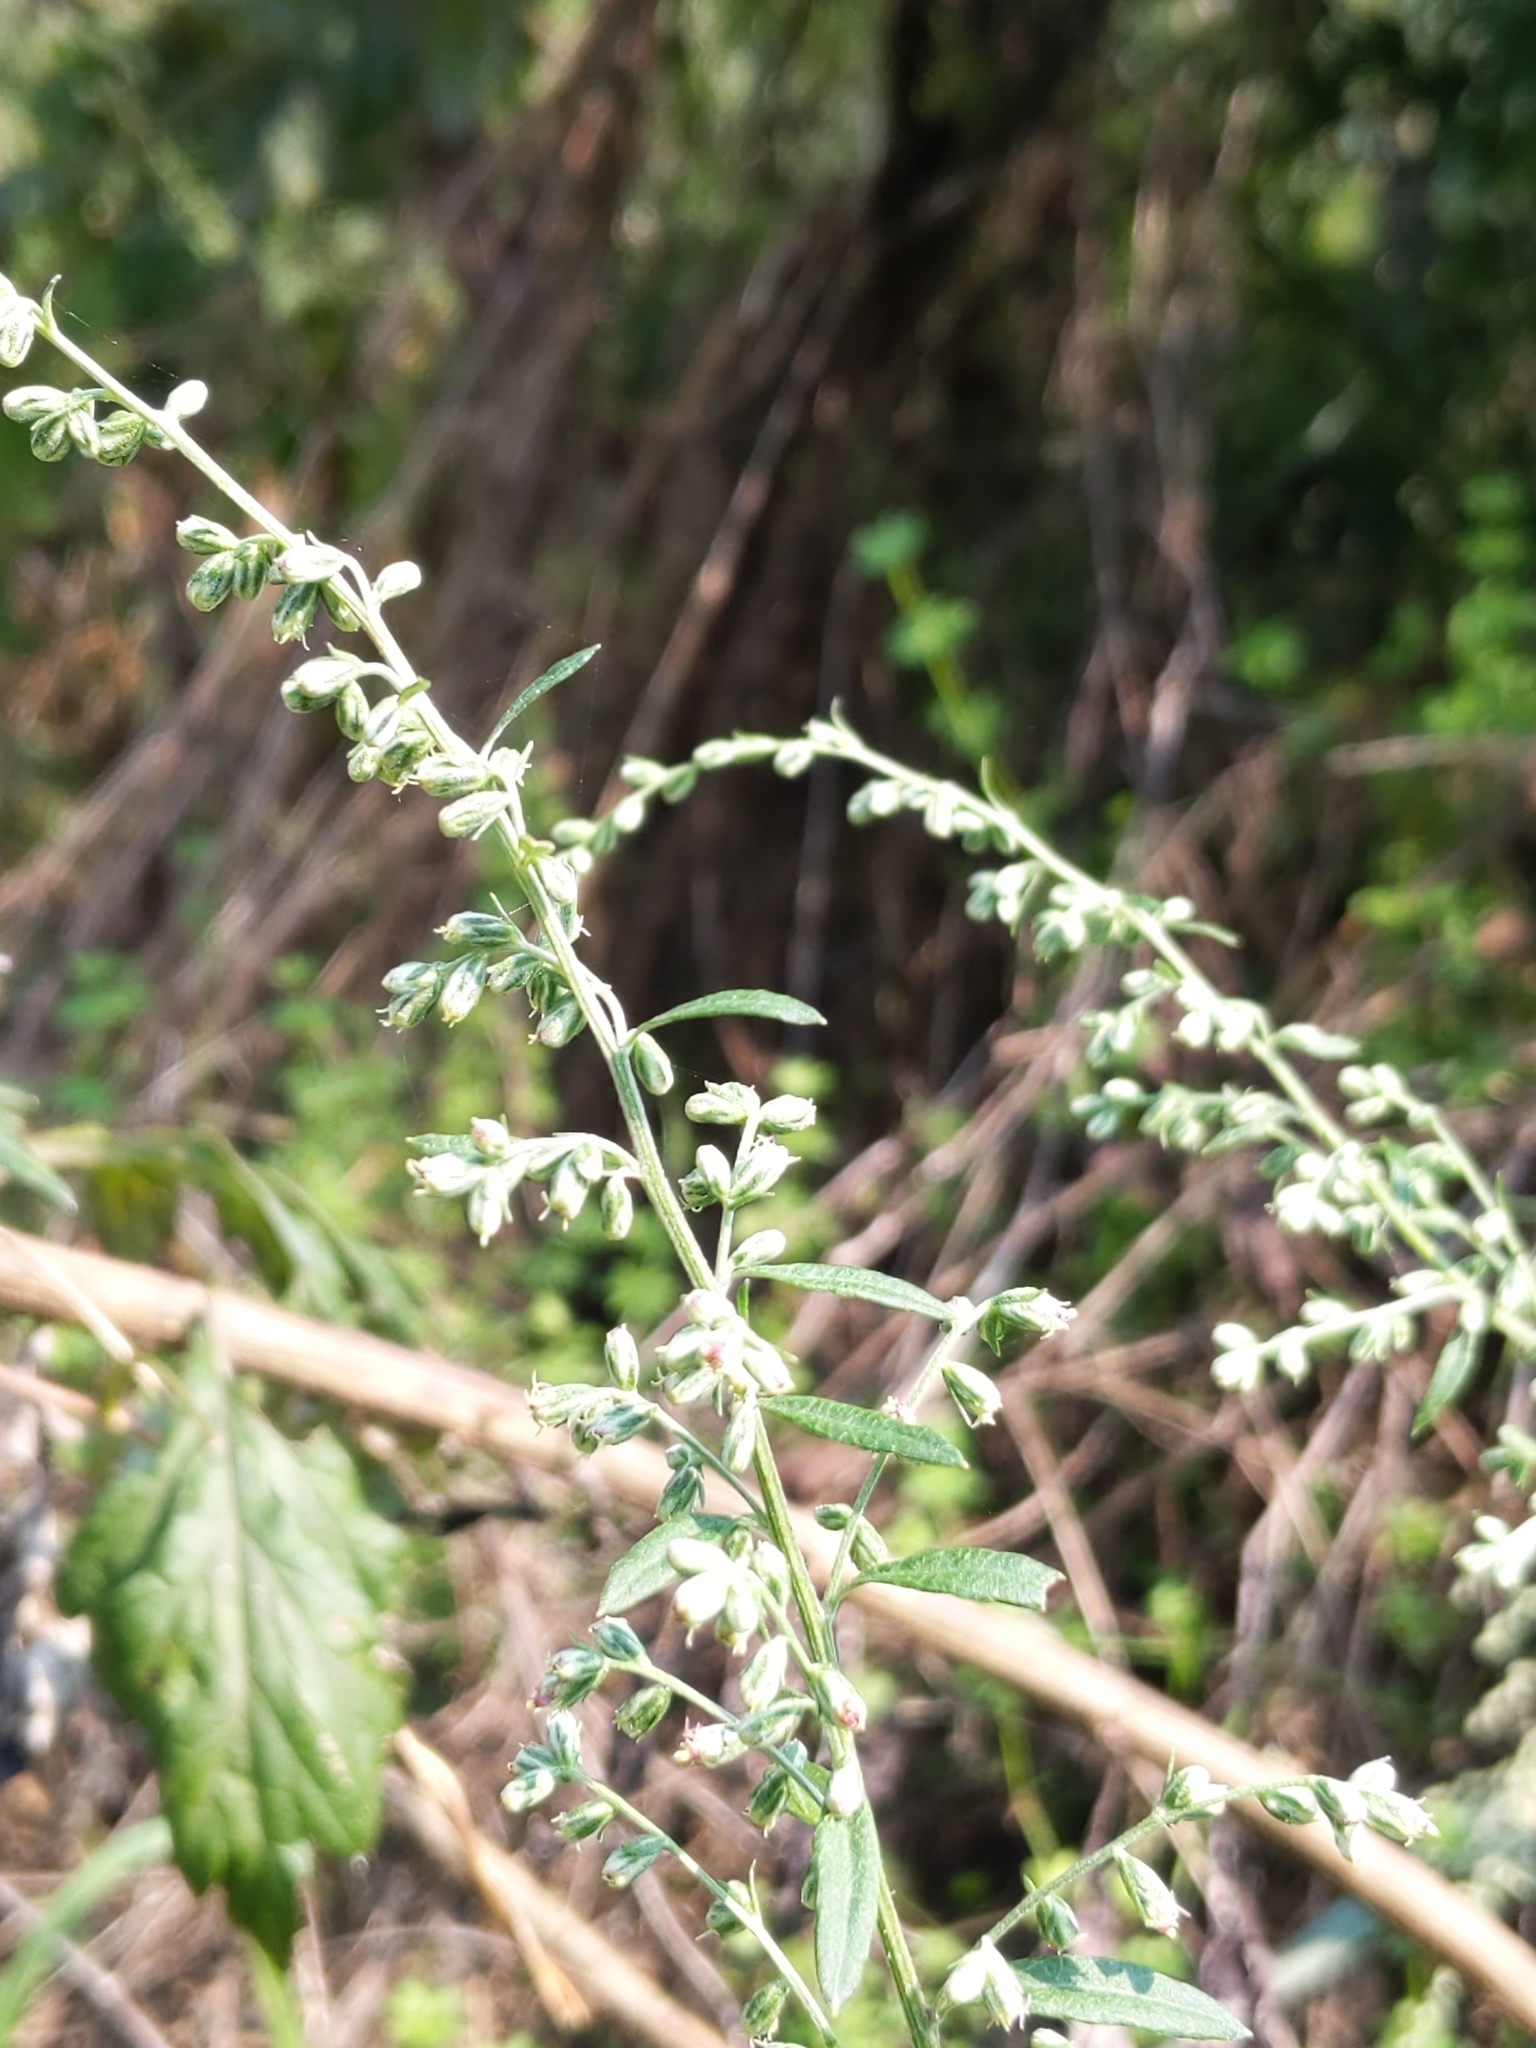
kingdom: Plantae
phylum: Tracheophyta
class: Magnoliopsida
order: Asterales
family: Asteraceae
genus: Artemisia
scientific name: Artemisia vulgaris
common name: Mugwort
